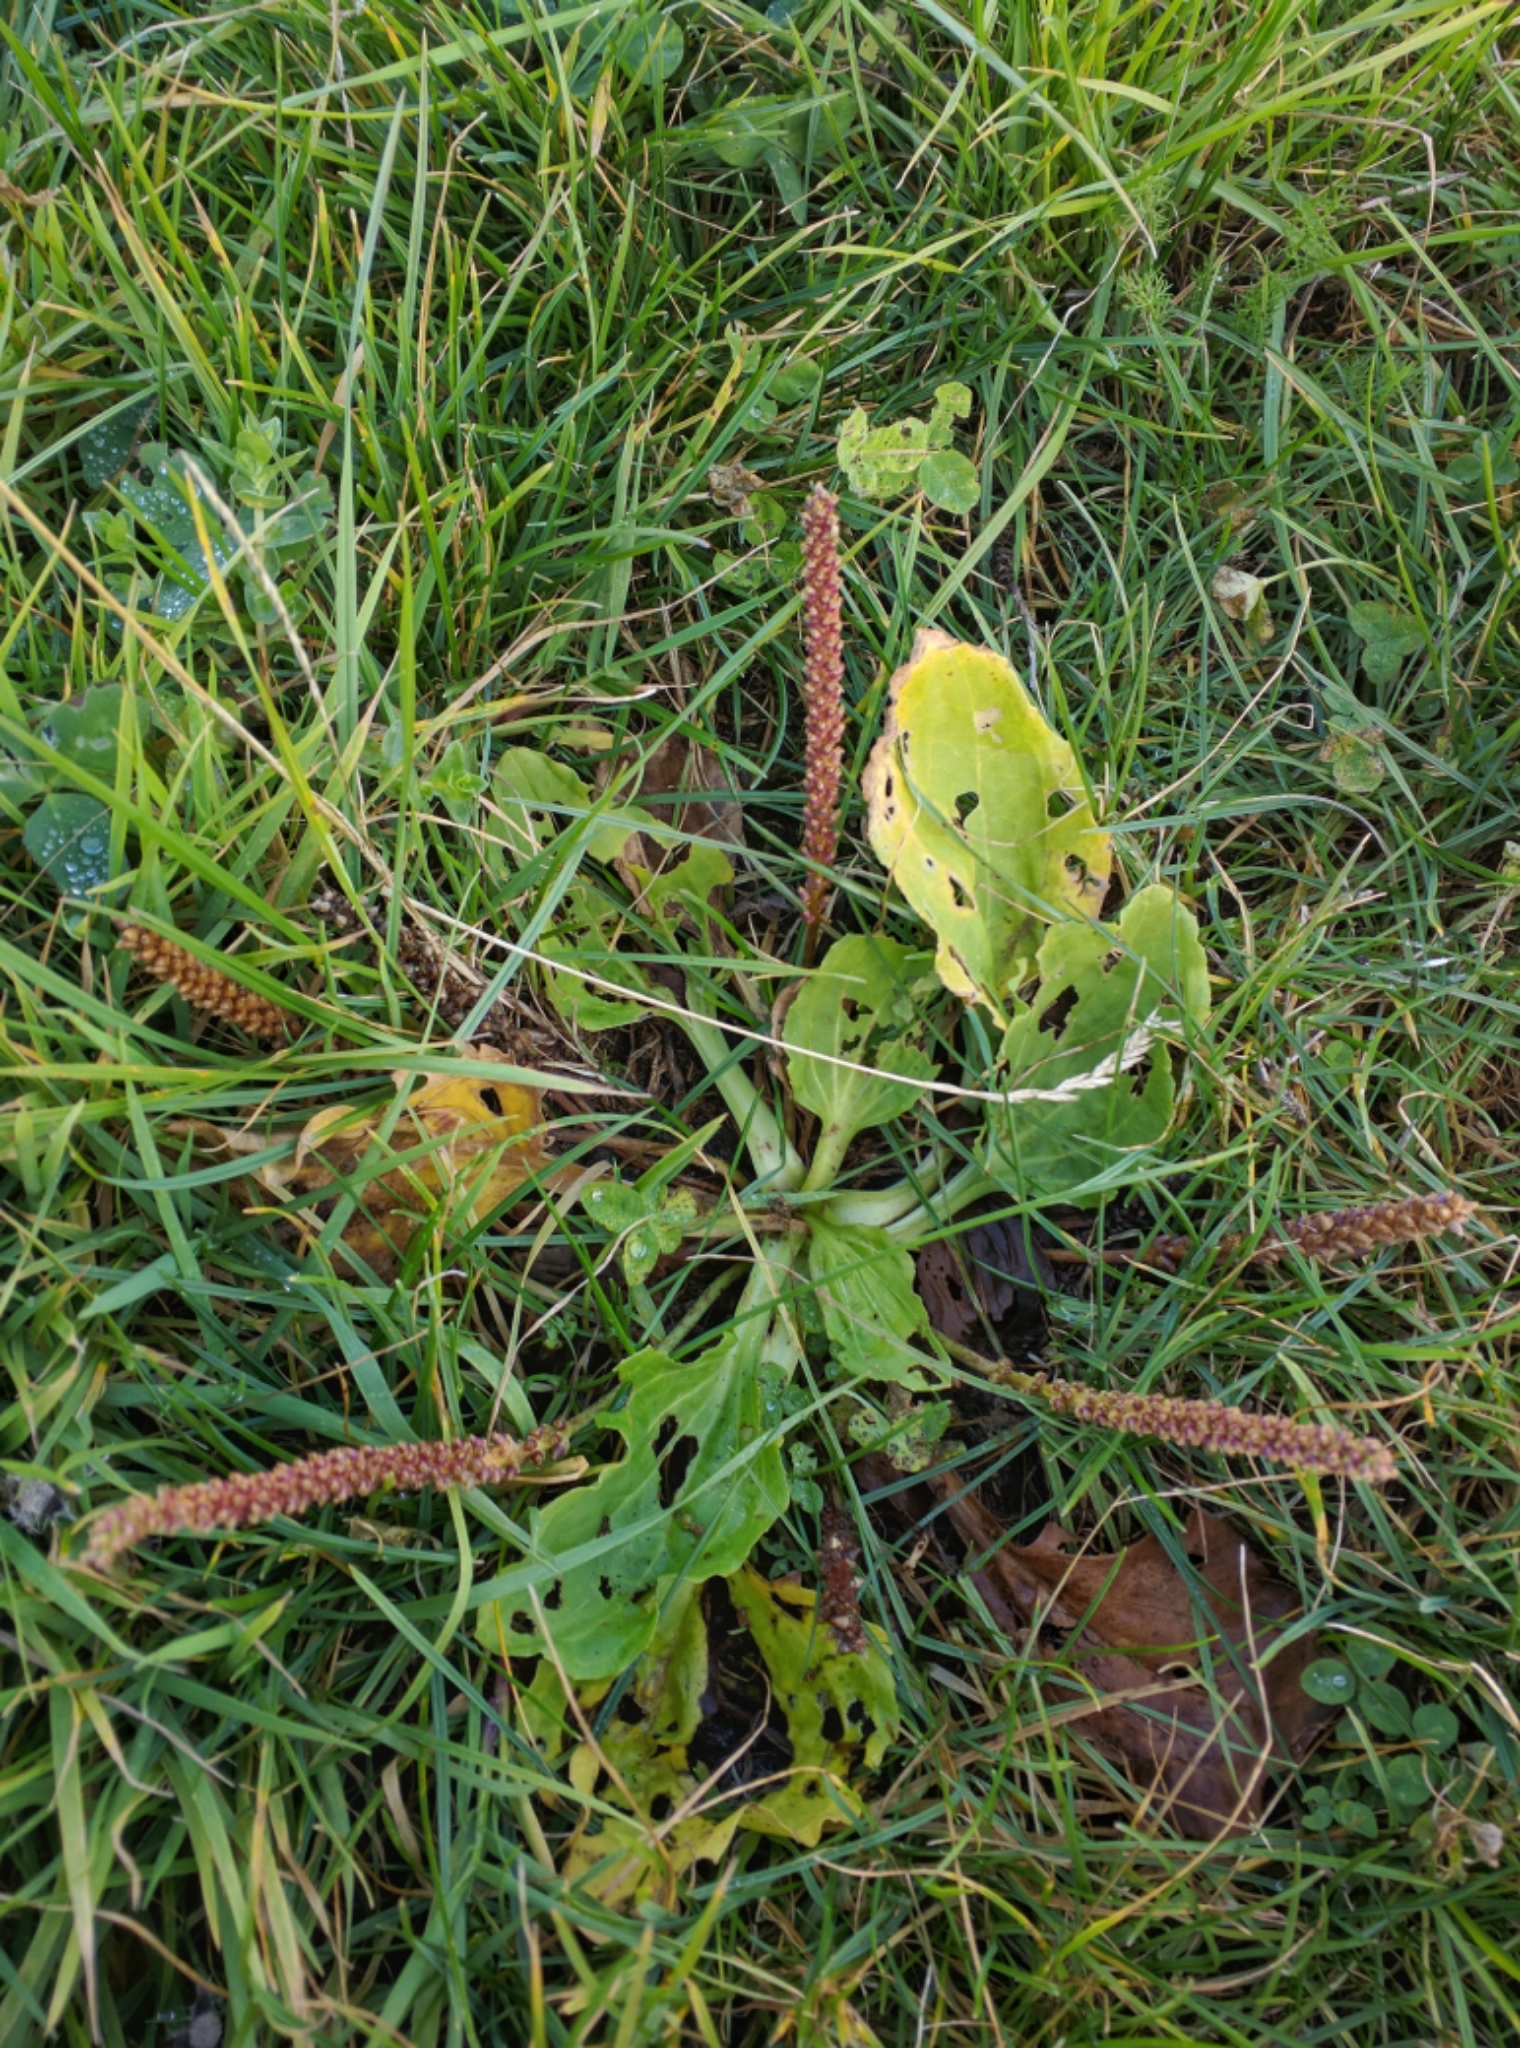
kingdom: Plantae
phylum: Tracheophyta
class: Magnoliopsida
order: Lamiales
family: Plantaginaceae
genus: Plantago
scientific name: Plantago major
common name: Common plantain
